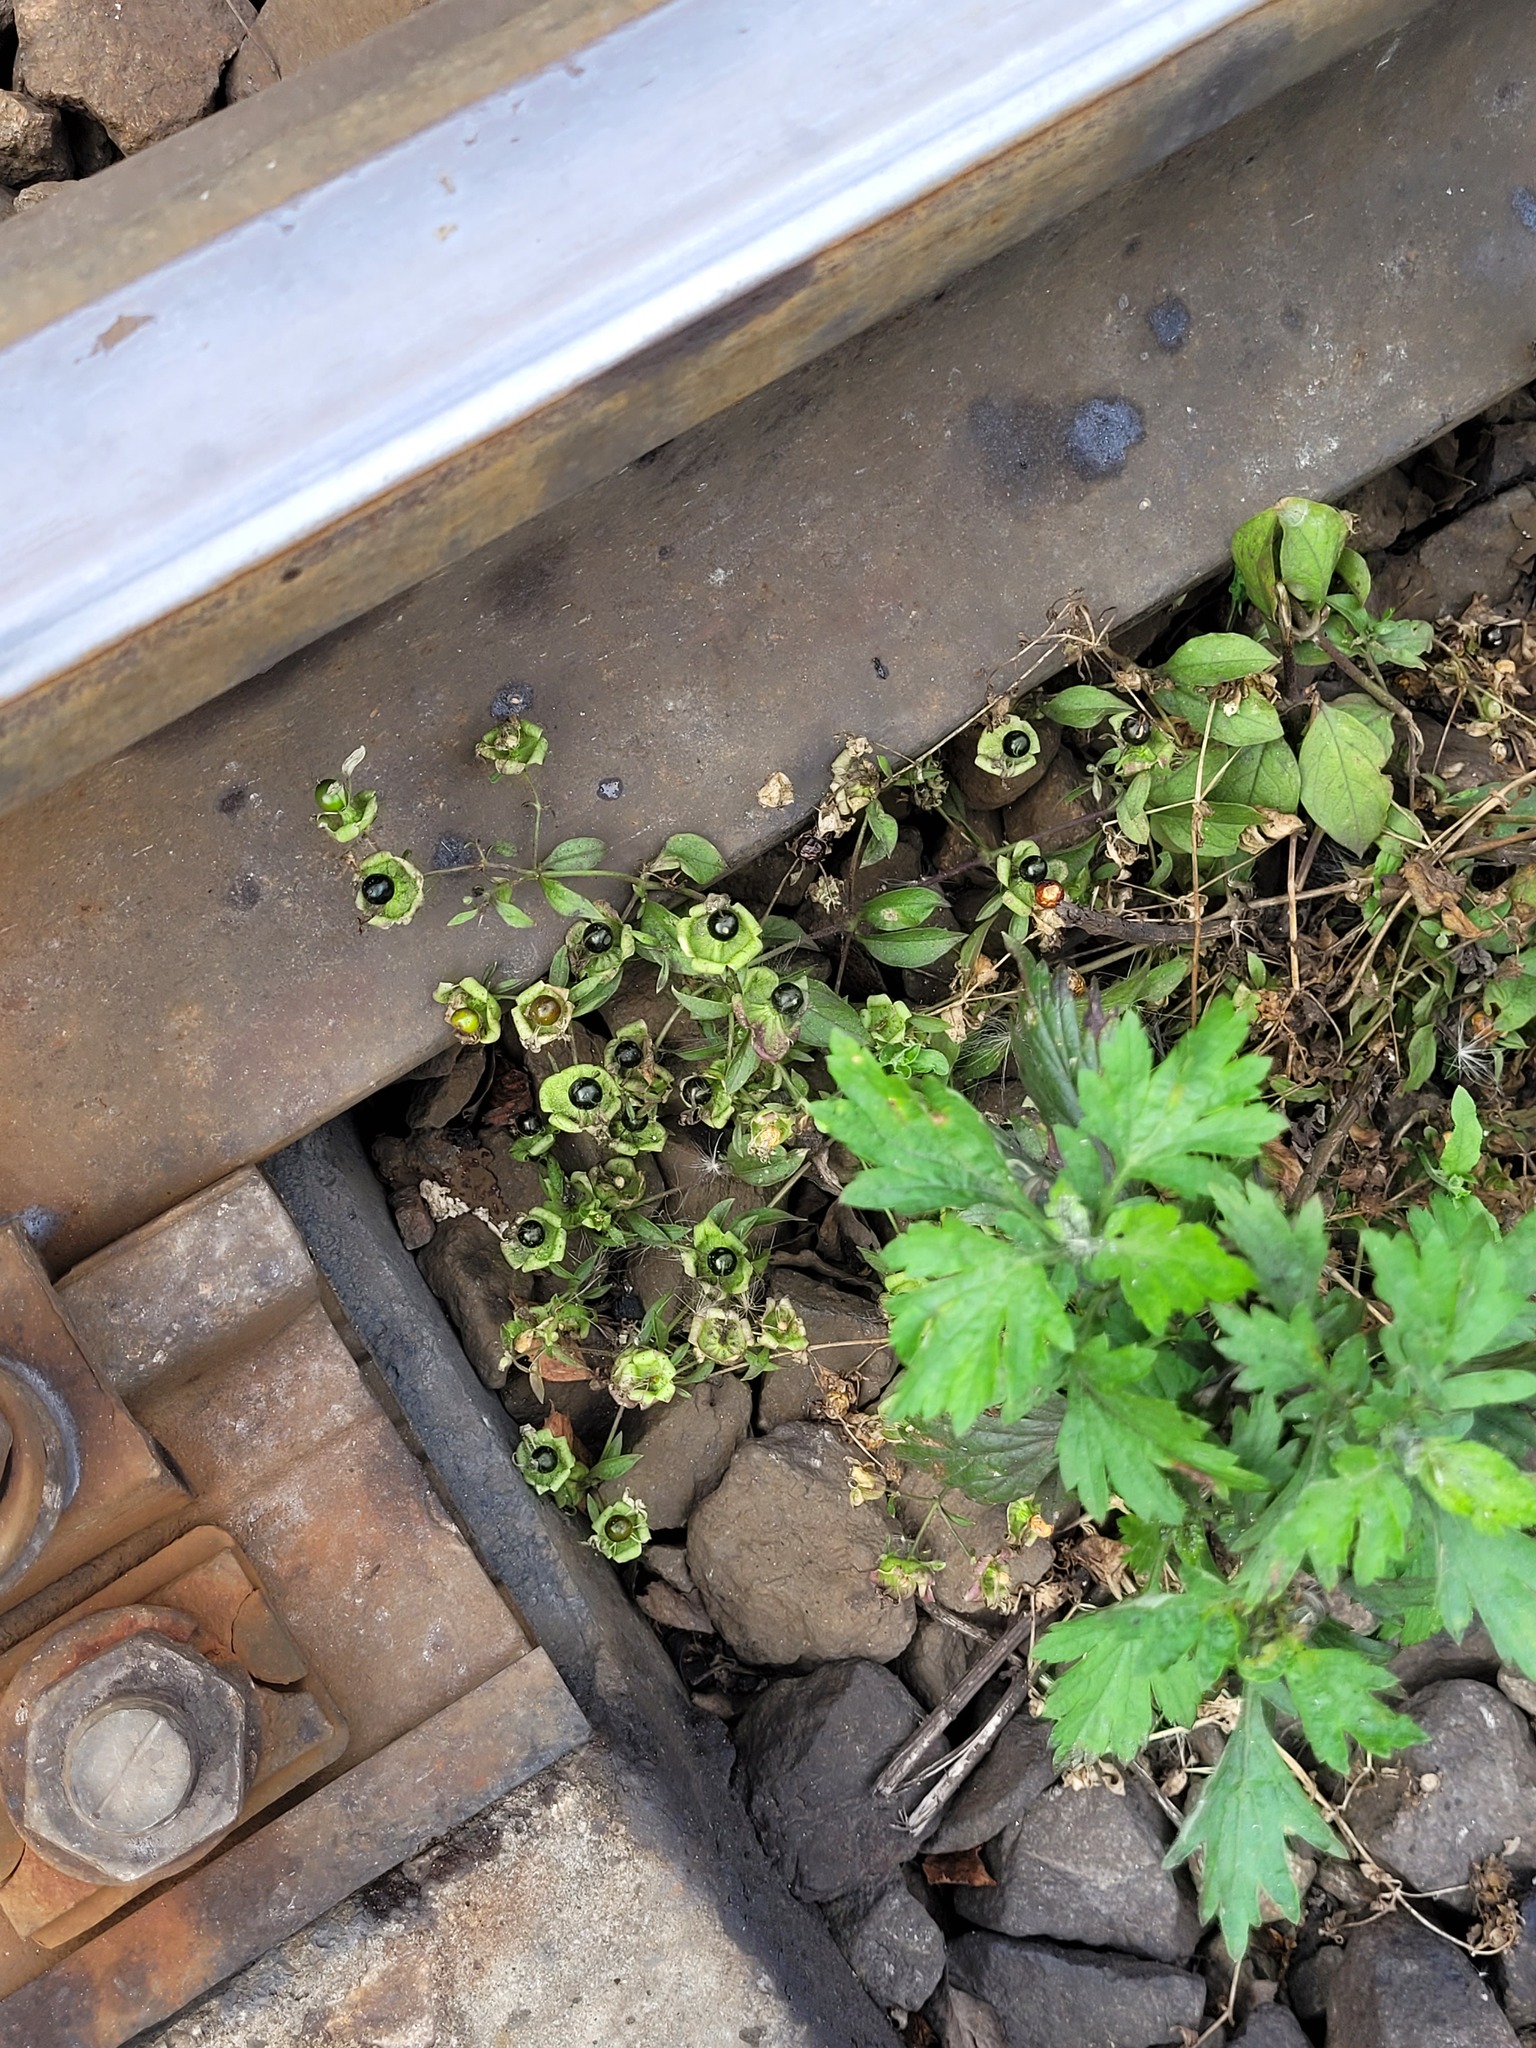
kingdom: Plantae
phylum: Tracheophyta
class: Magnoliopsida
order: Caryophyllales
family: Caryophyllaceae
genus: Silene
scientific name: Silene baccifera
